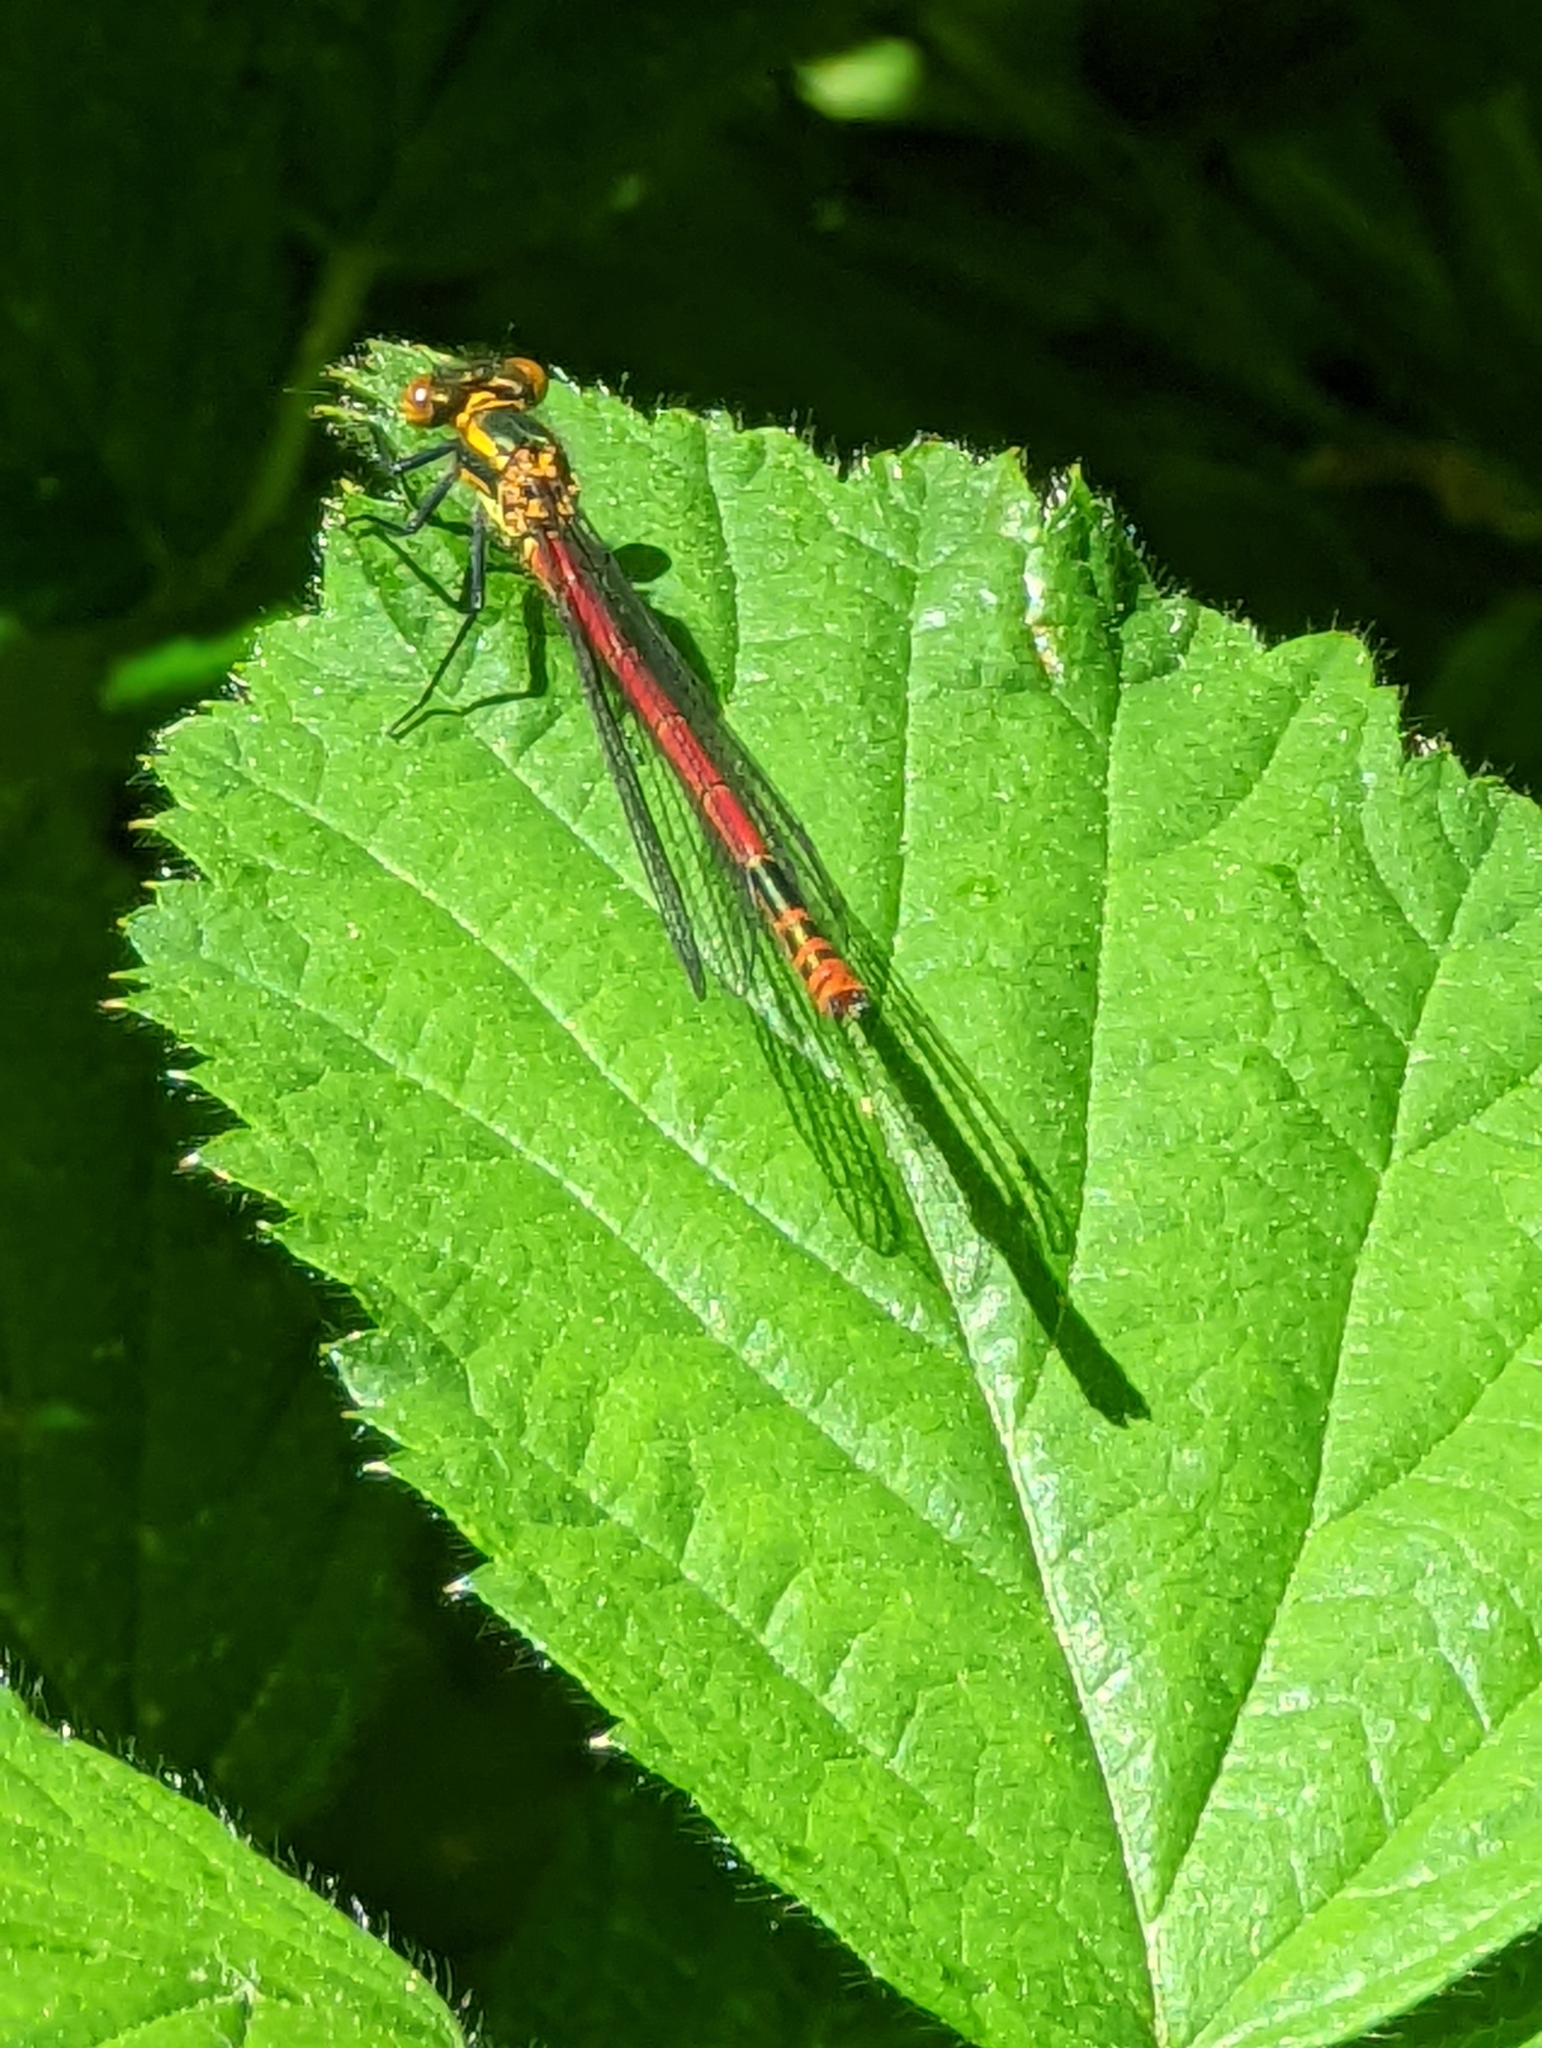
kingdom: Animalia
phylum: Arthropoda
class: Insecta
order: Odonata
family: Coenagrionidae
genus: Pyrrhosoma
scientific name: Pyrrhosoma nymphula
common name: Large red damsel
